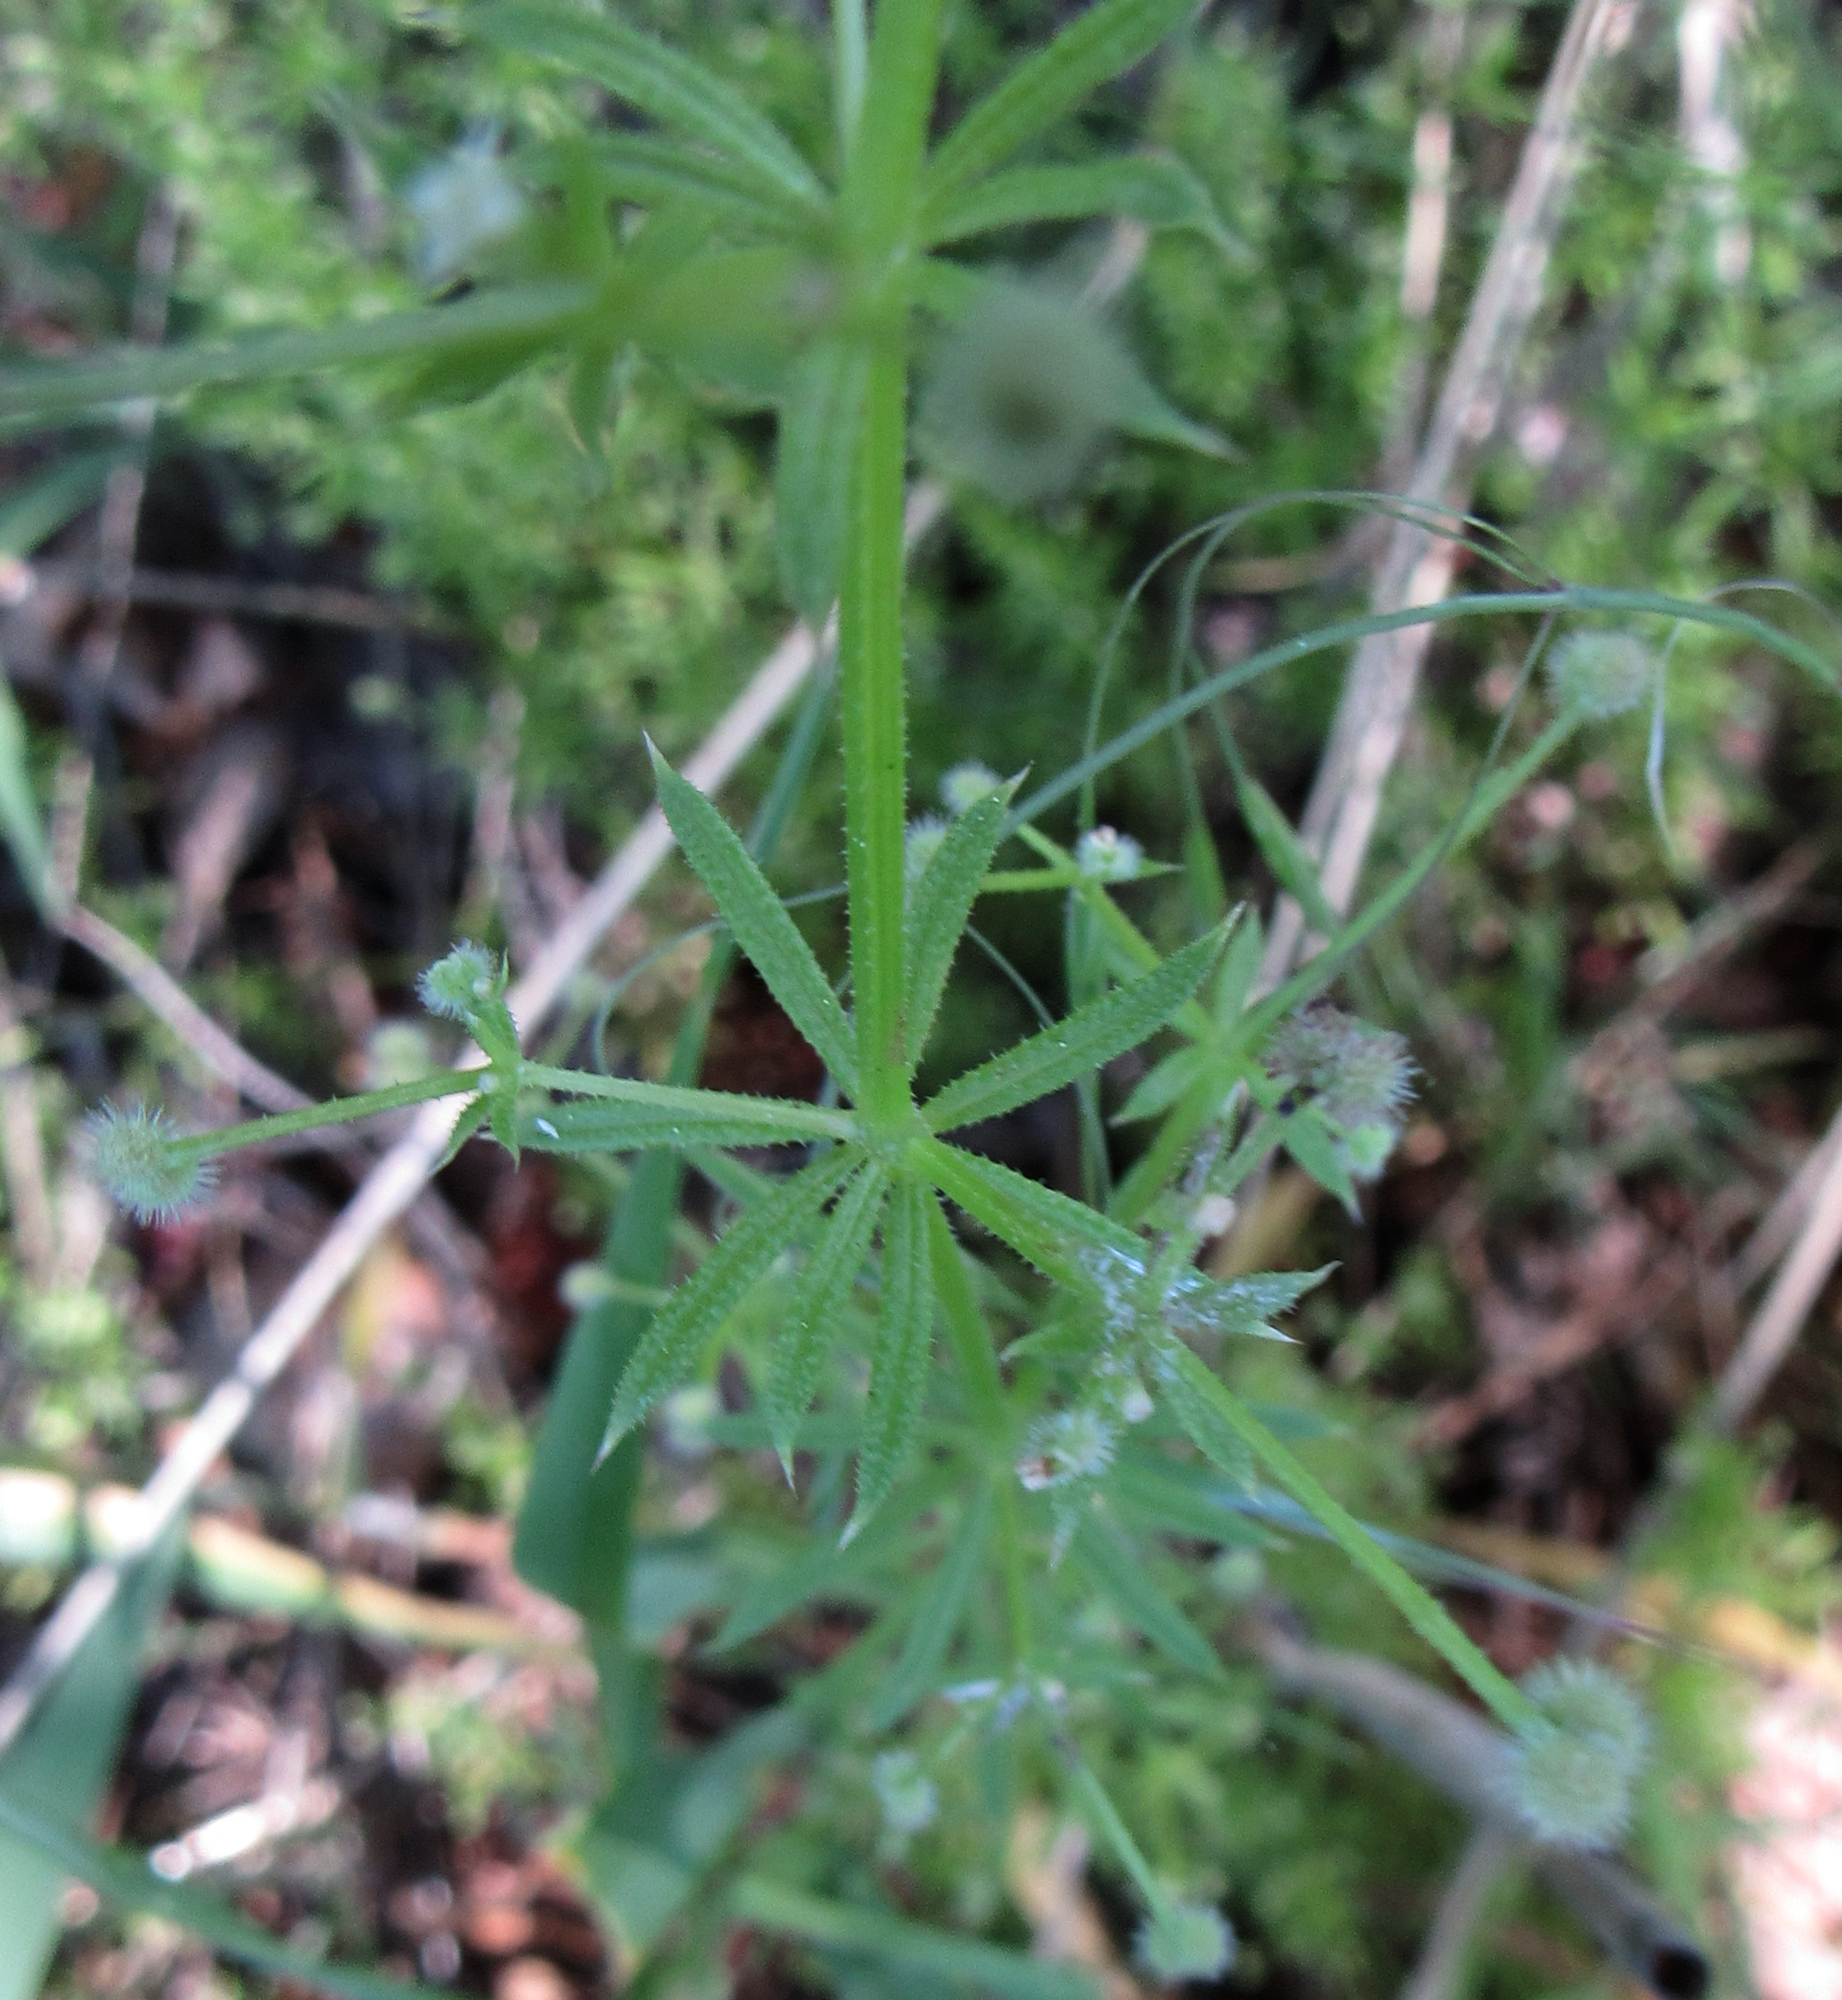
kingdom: Plantae
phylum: Tracheophyta
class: Magnoliopsida
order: Gentianales
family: Rubiaceae
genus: Galium
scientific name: Galium aparine
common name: Cleavers
